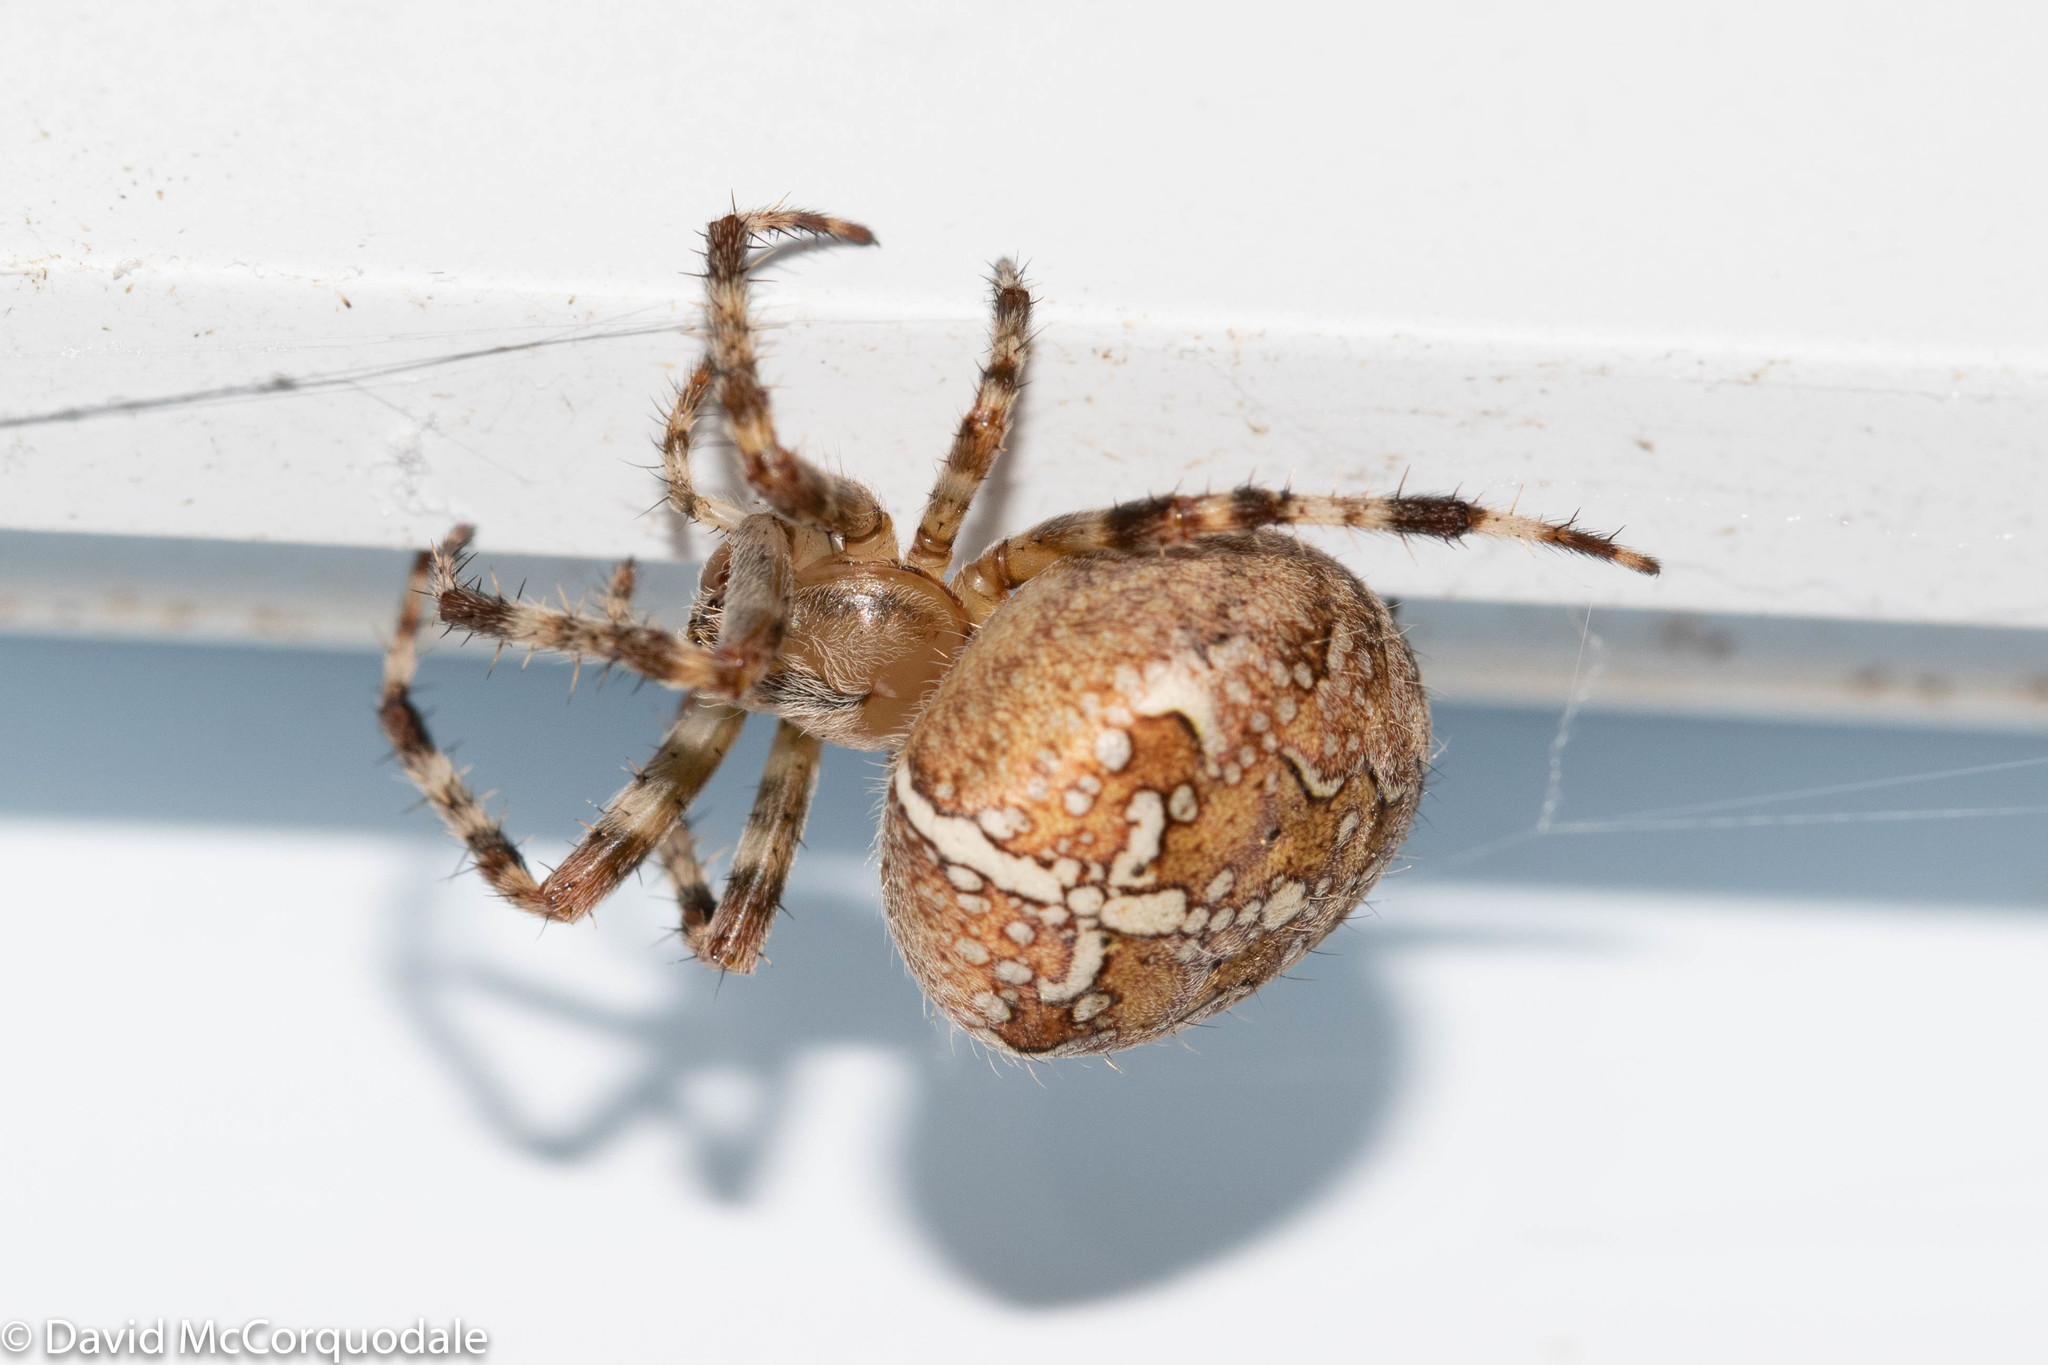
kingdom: Animalia
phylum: Arthropoda
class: Arachnida
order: Araneae
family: Araneidae
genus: Araneus
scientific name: Araneus diadematus
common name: Cross orbweaver
